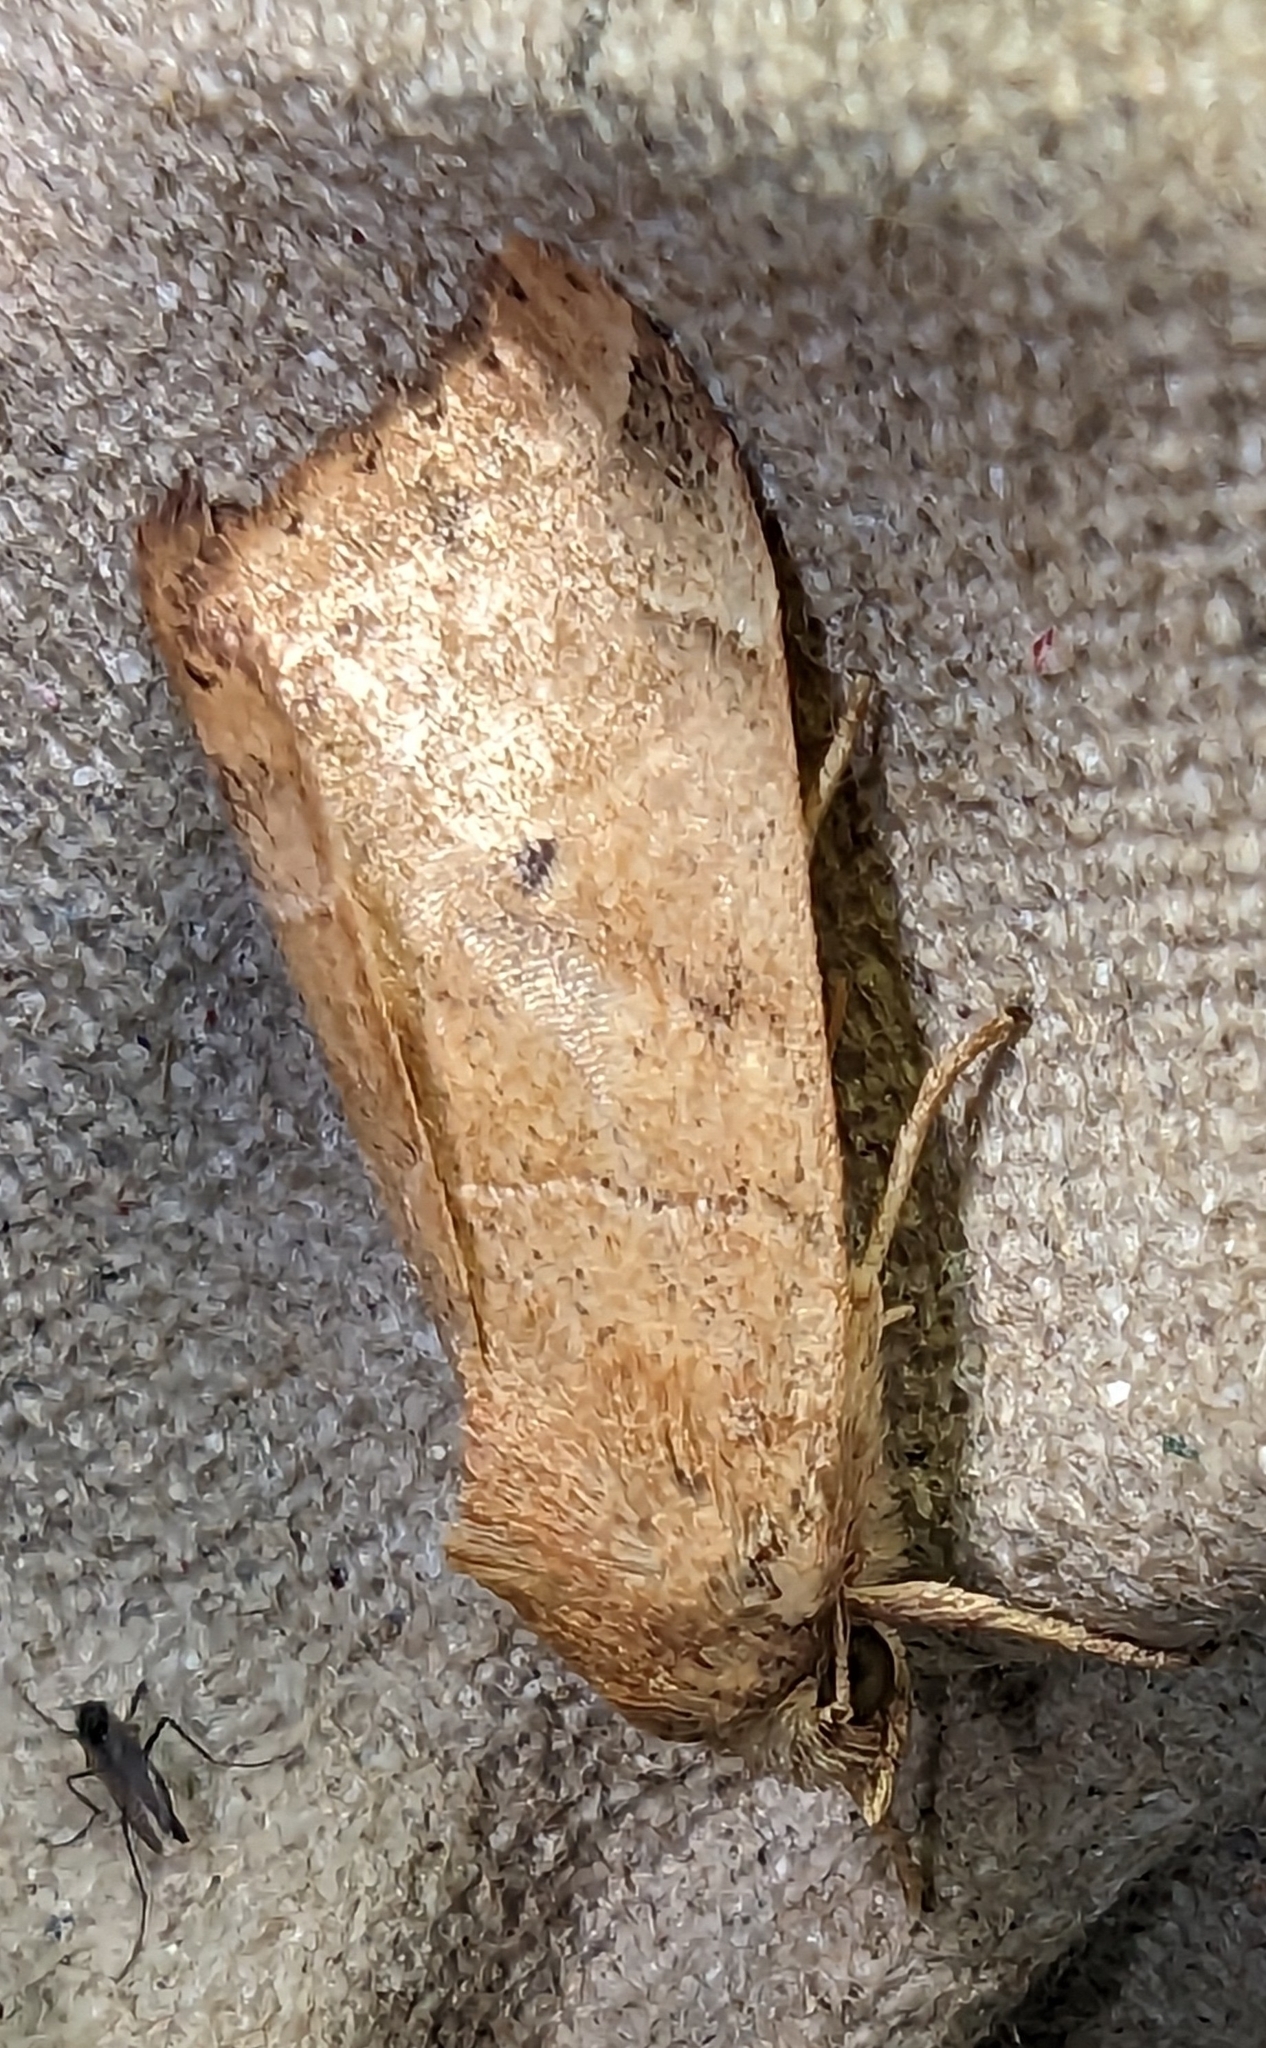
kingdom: Animalia
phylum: Arthropoda
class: Insecta
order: Lepidoptera
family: Noctuidae
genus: Cosmia
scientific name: Cosmia trapezina
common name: Dun-bar
